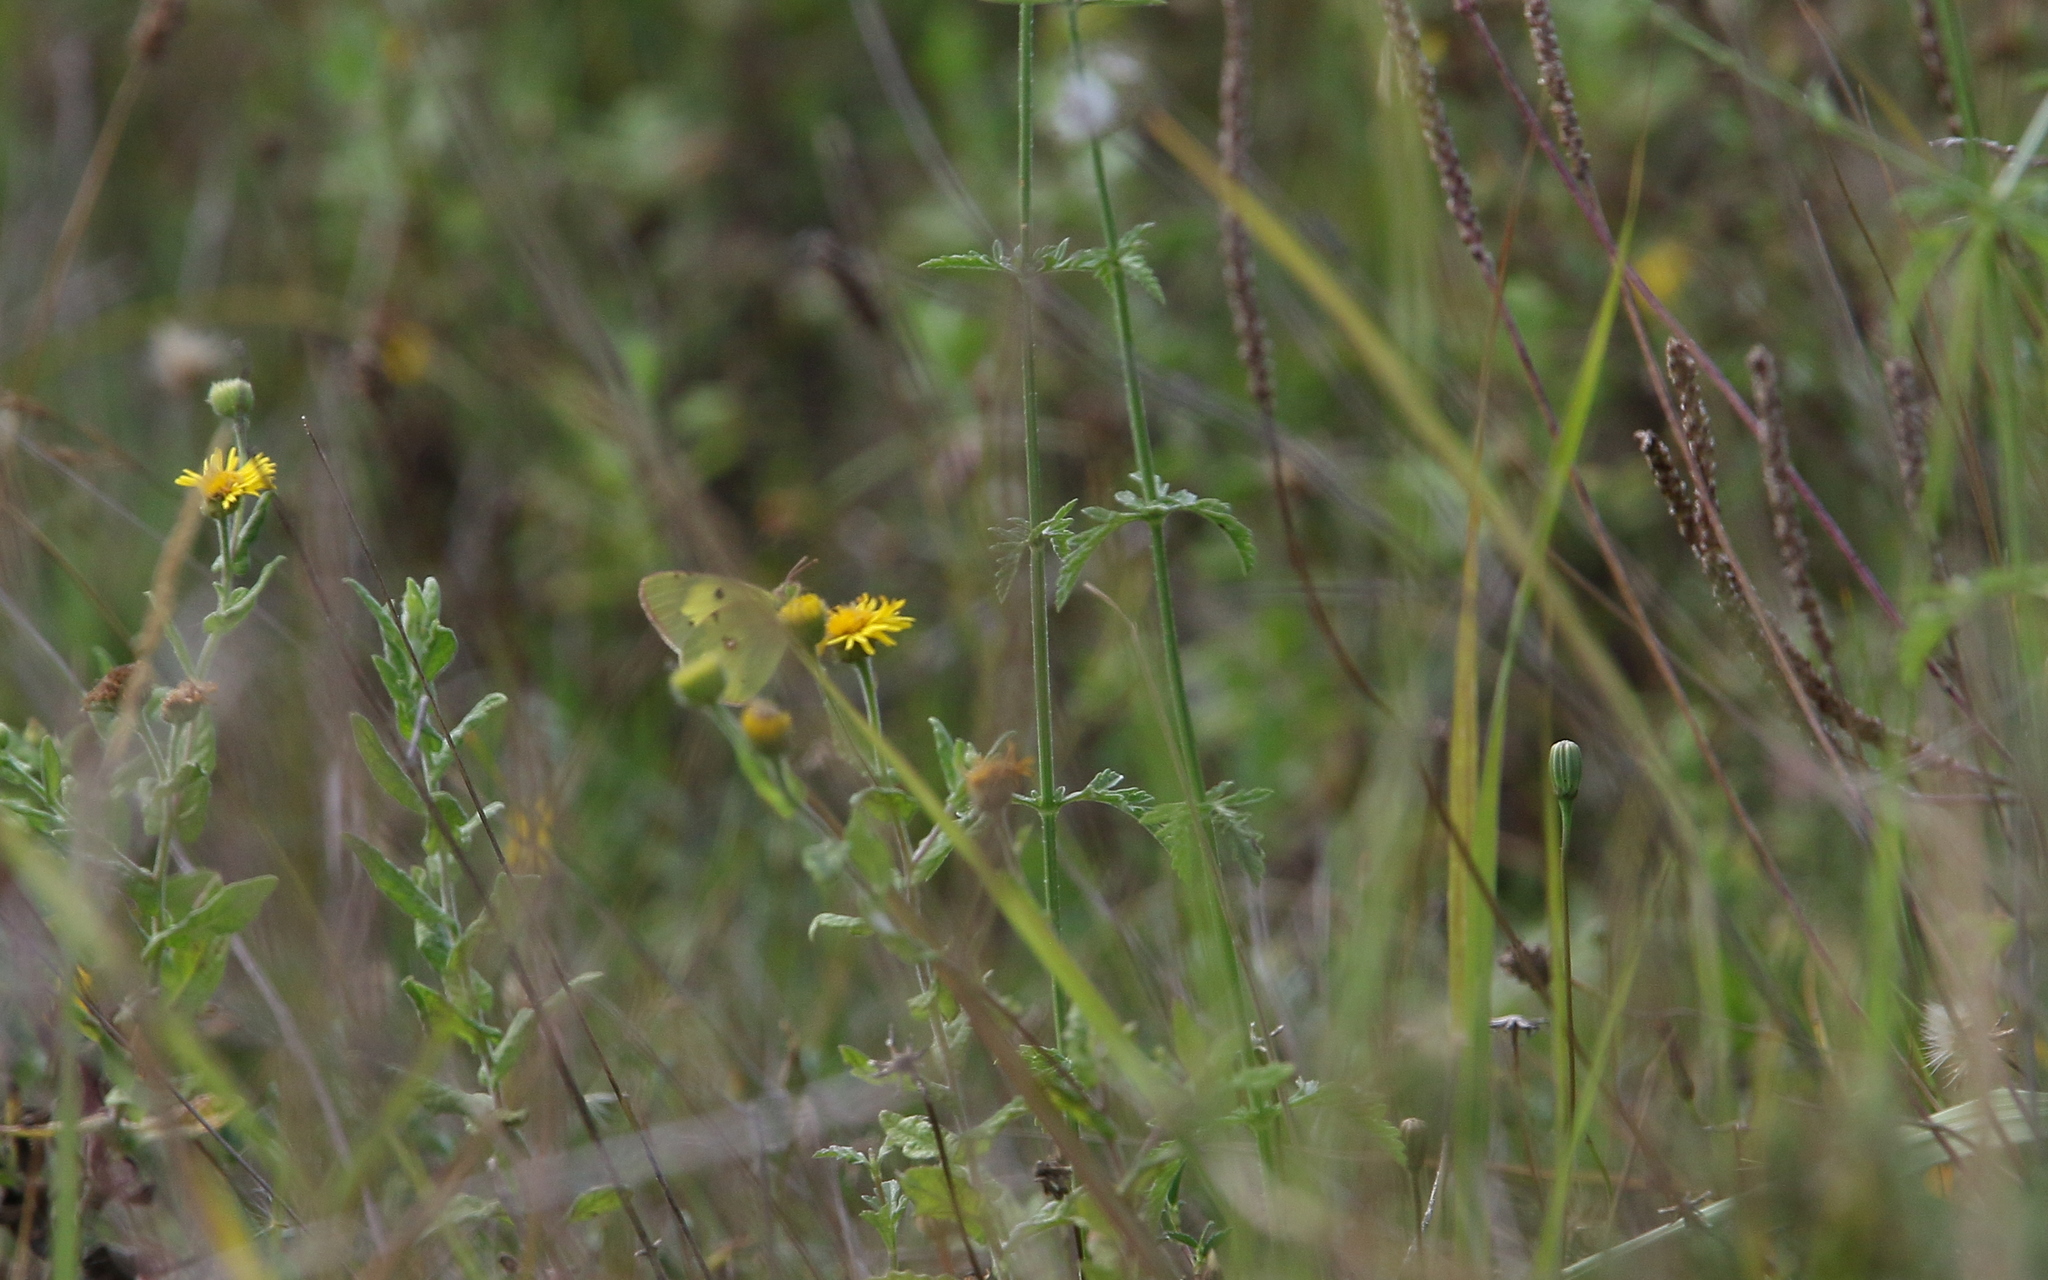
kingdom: Animalia
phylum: Arthropoda
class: Insecta
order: Lepidoptera
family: Pieridae
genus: Colias
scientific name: Colias erate
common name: Eastern pale clouded yellow
